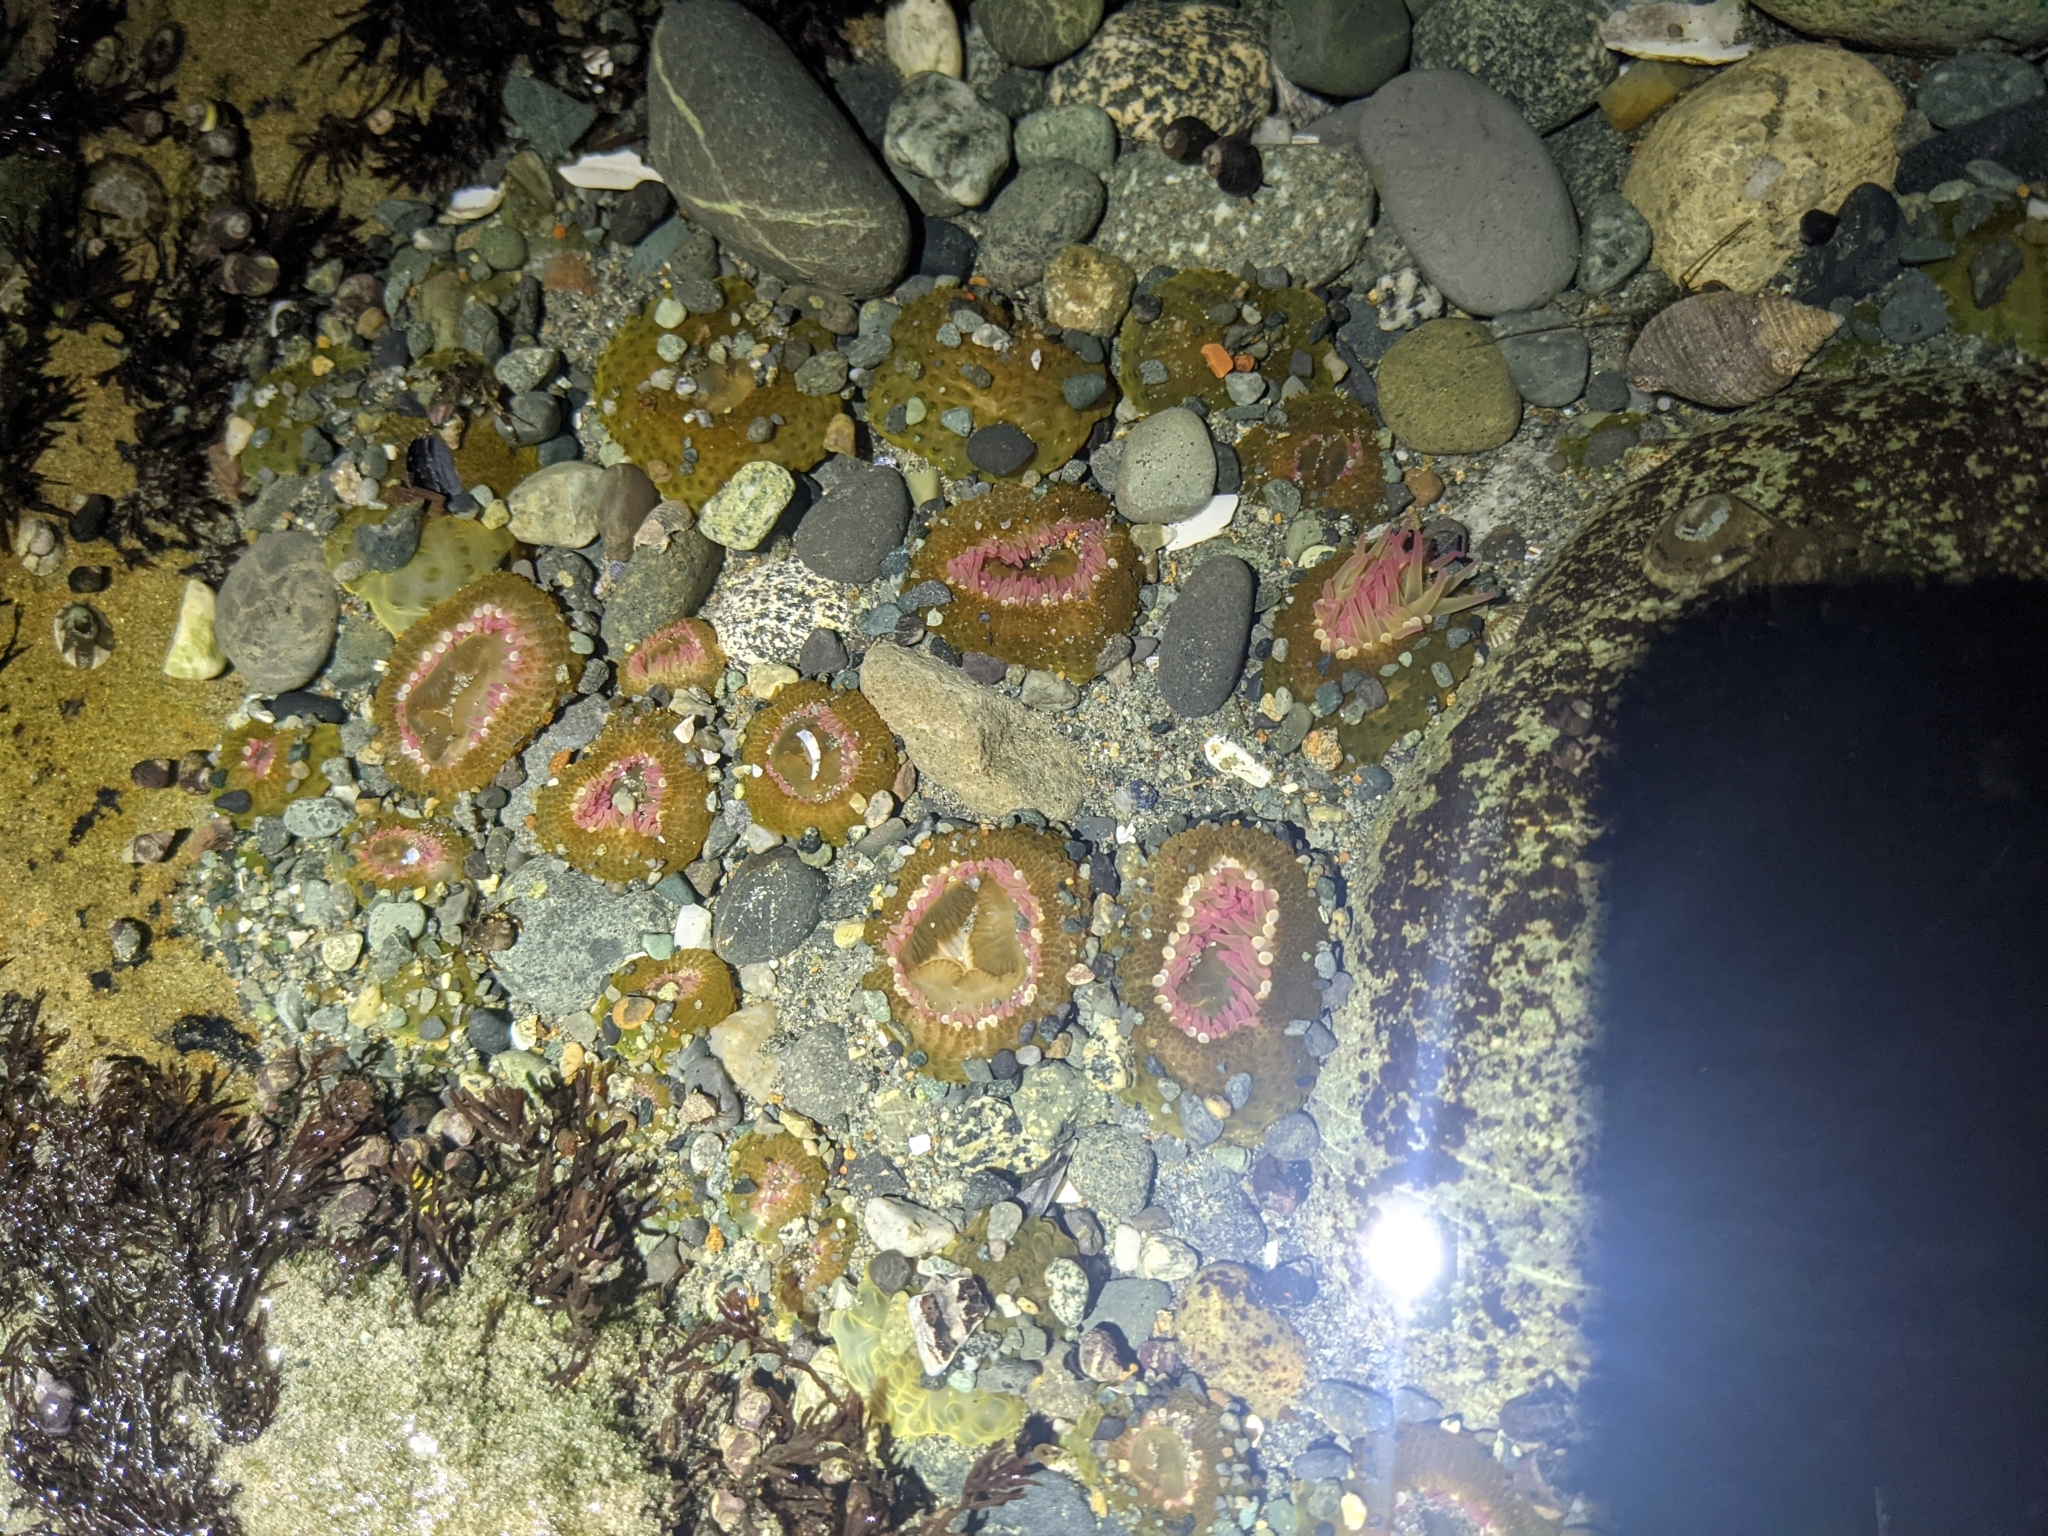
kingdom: Animalia
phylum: Cnidaria
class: Anthozoa
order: Actiniaria
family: Actiniidae
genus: Anthopleura
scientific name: Anthopleura elegantissima
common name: Clonal anemone
